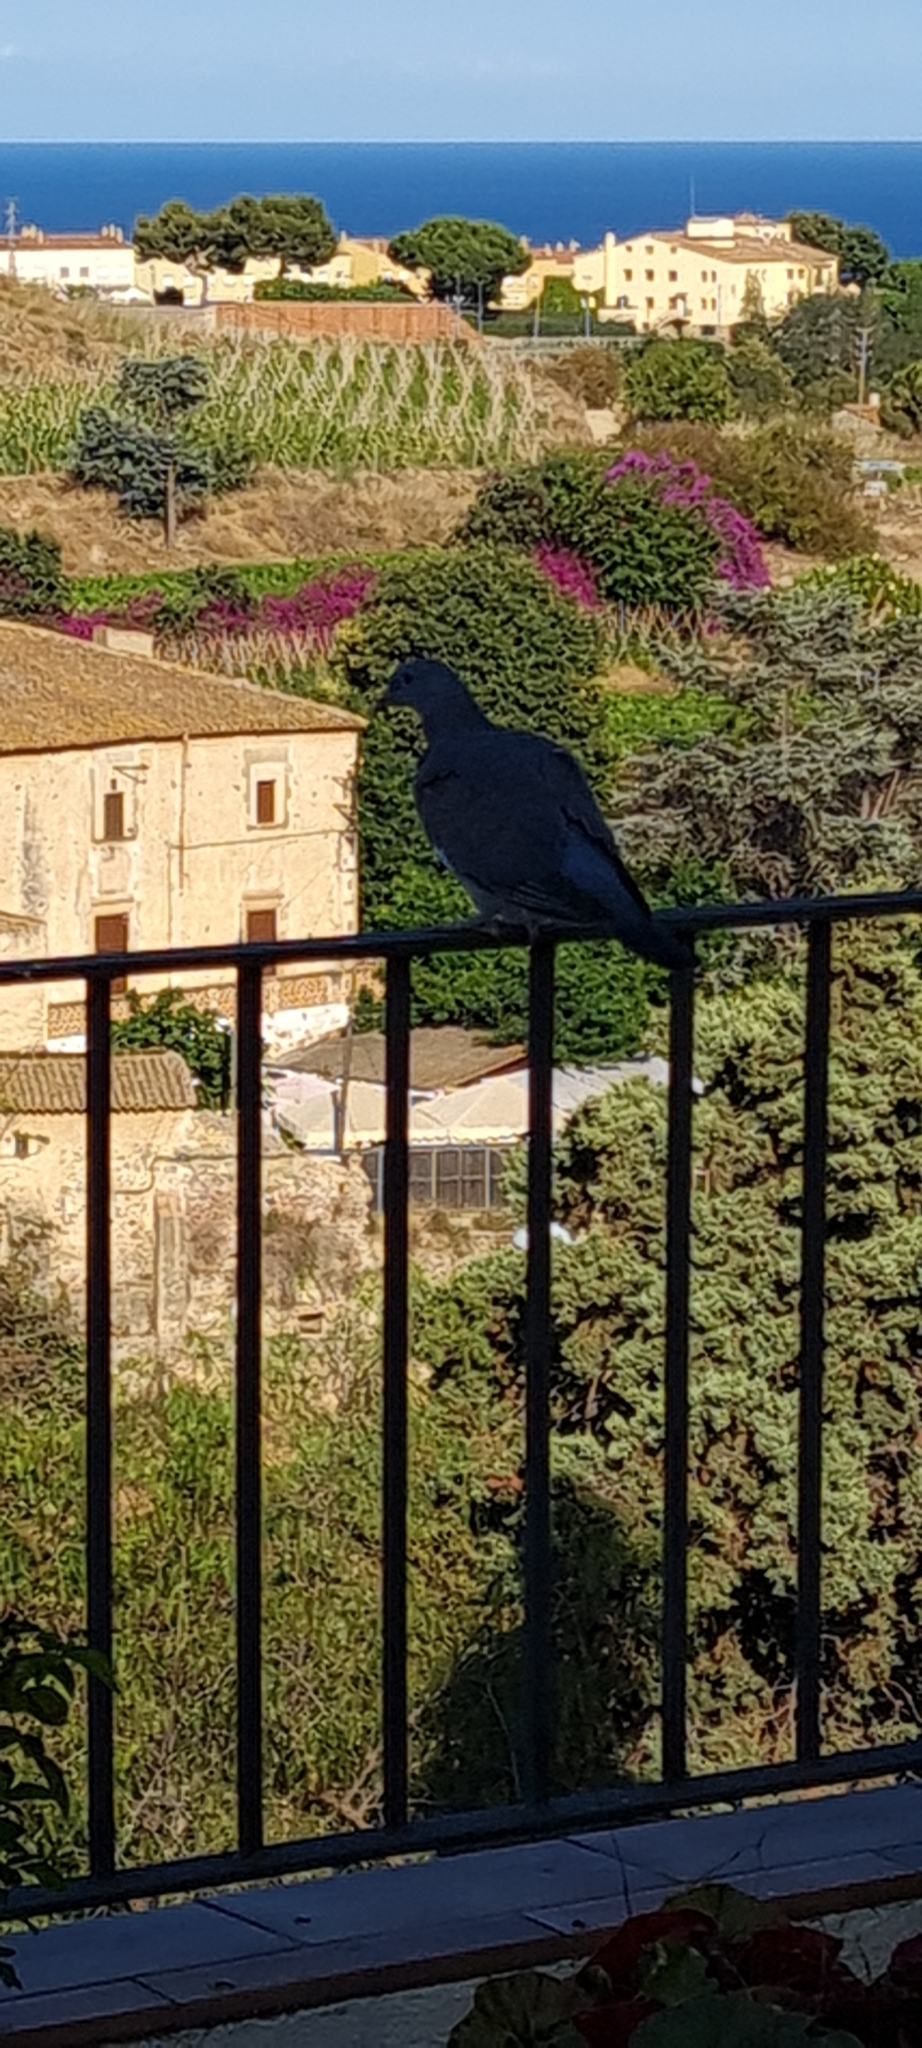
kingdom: Animalia
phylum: Chordata
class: Aves
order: Columbiformes
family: Columbidae
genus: Columba
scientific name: Columba palumbus
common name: Common wood pigeon
